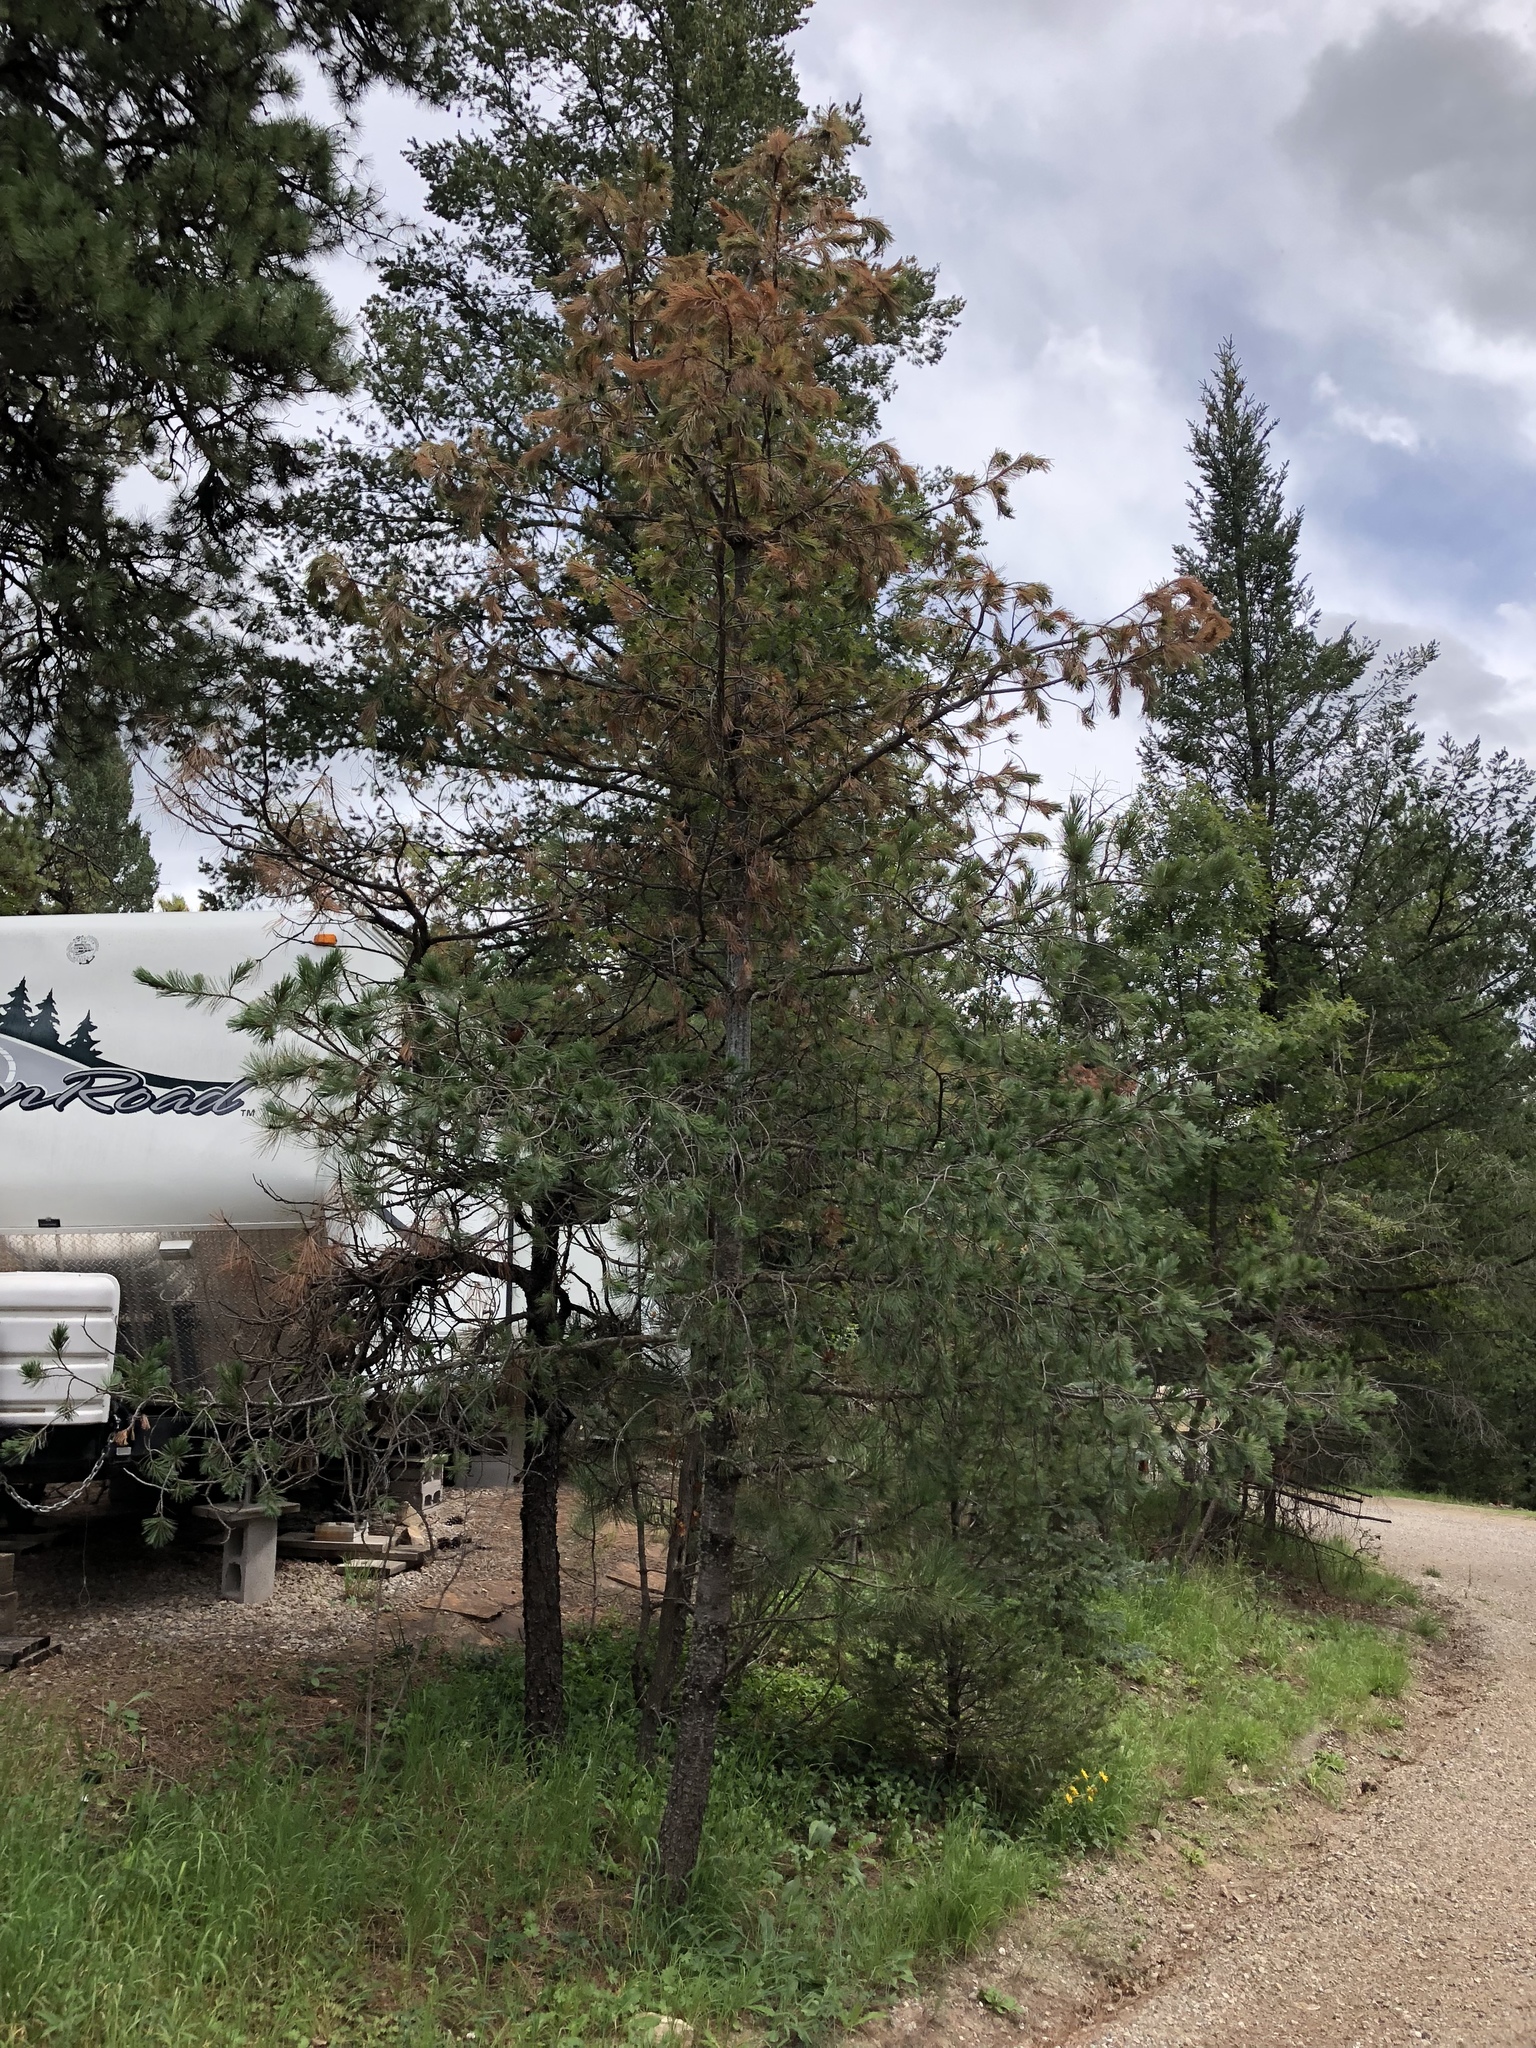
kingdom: Plantae
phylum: Tracheophyta
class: Pinopsida
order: Pinales
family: Pinaceae
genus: Pinus
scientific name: Pinus strobiformis
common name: Southwestern white pine
